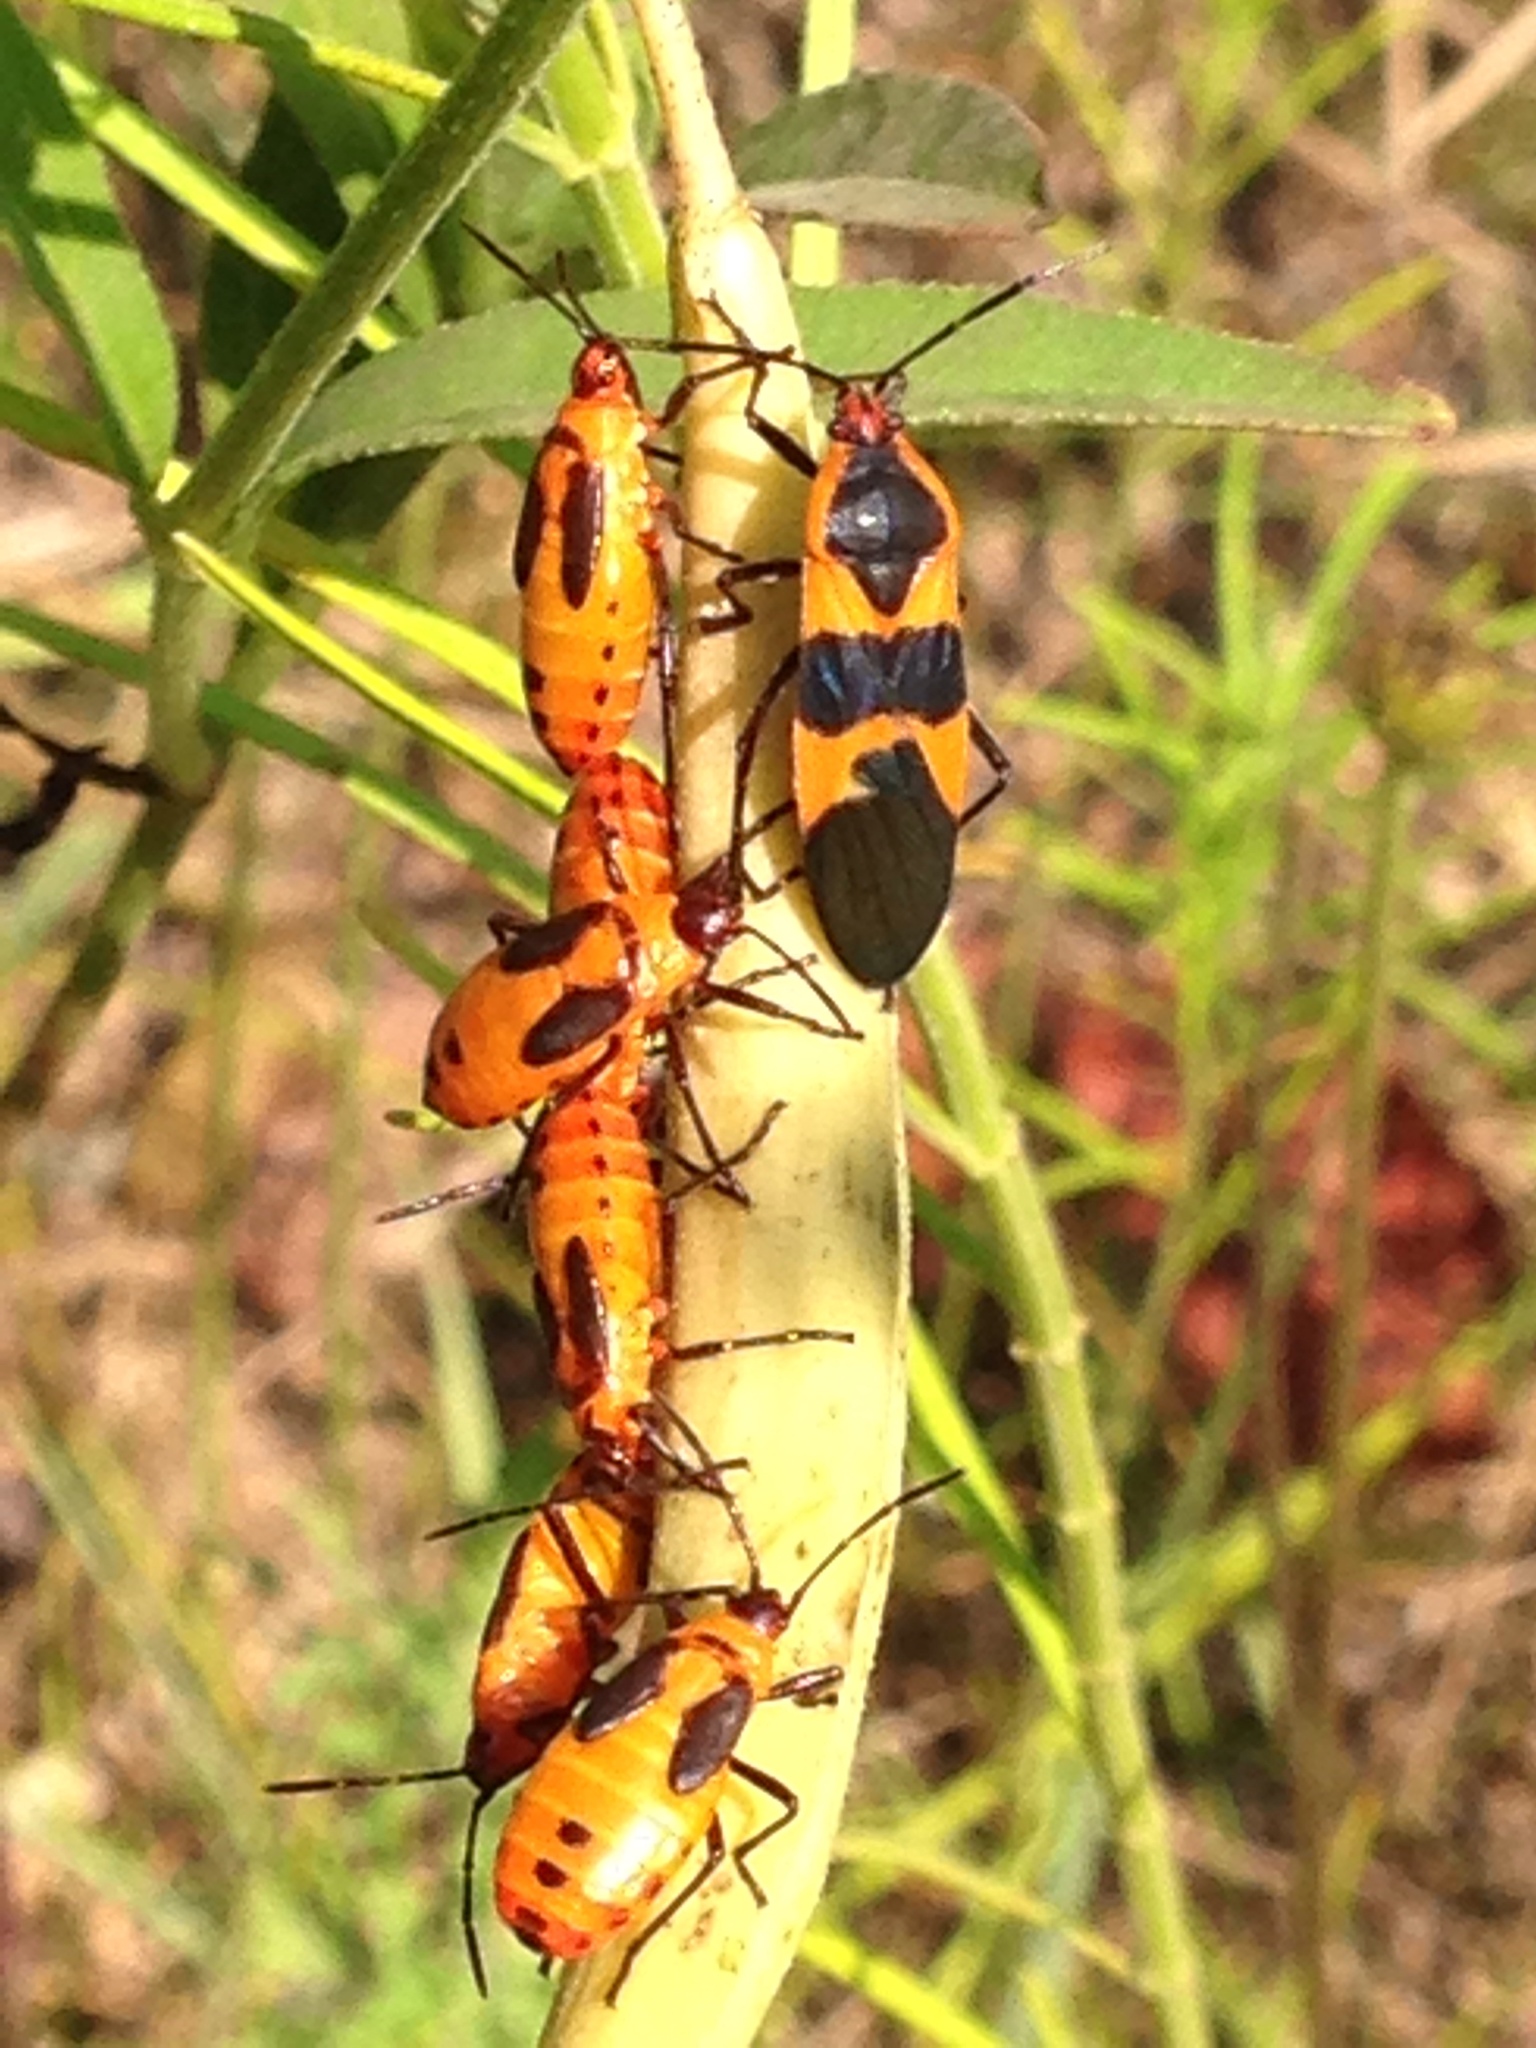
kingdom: Animalia
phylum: Arthropoda
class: Insecta
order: Hemiptera
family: Lygaeidae
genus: Oncopeltus
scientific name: Oncopeltus fasciatus
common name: Large milkweed bug
